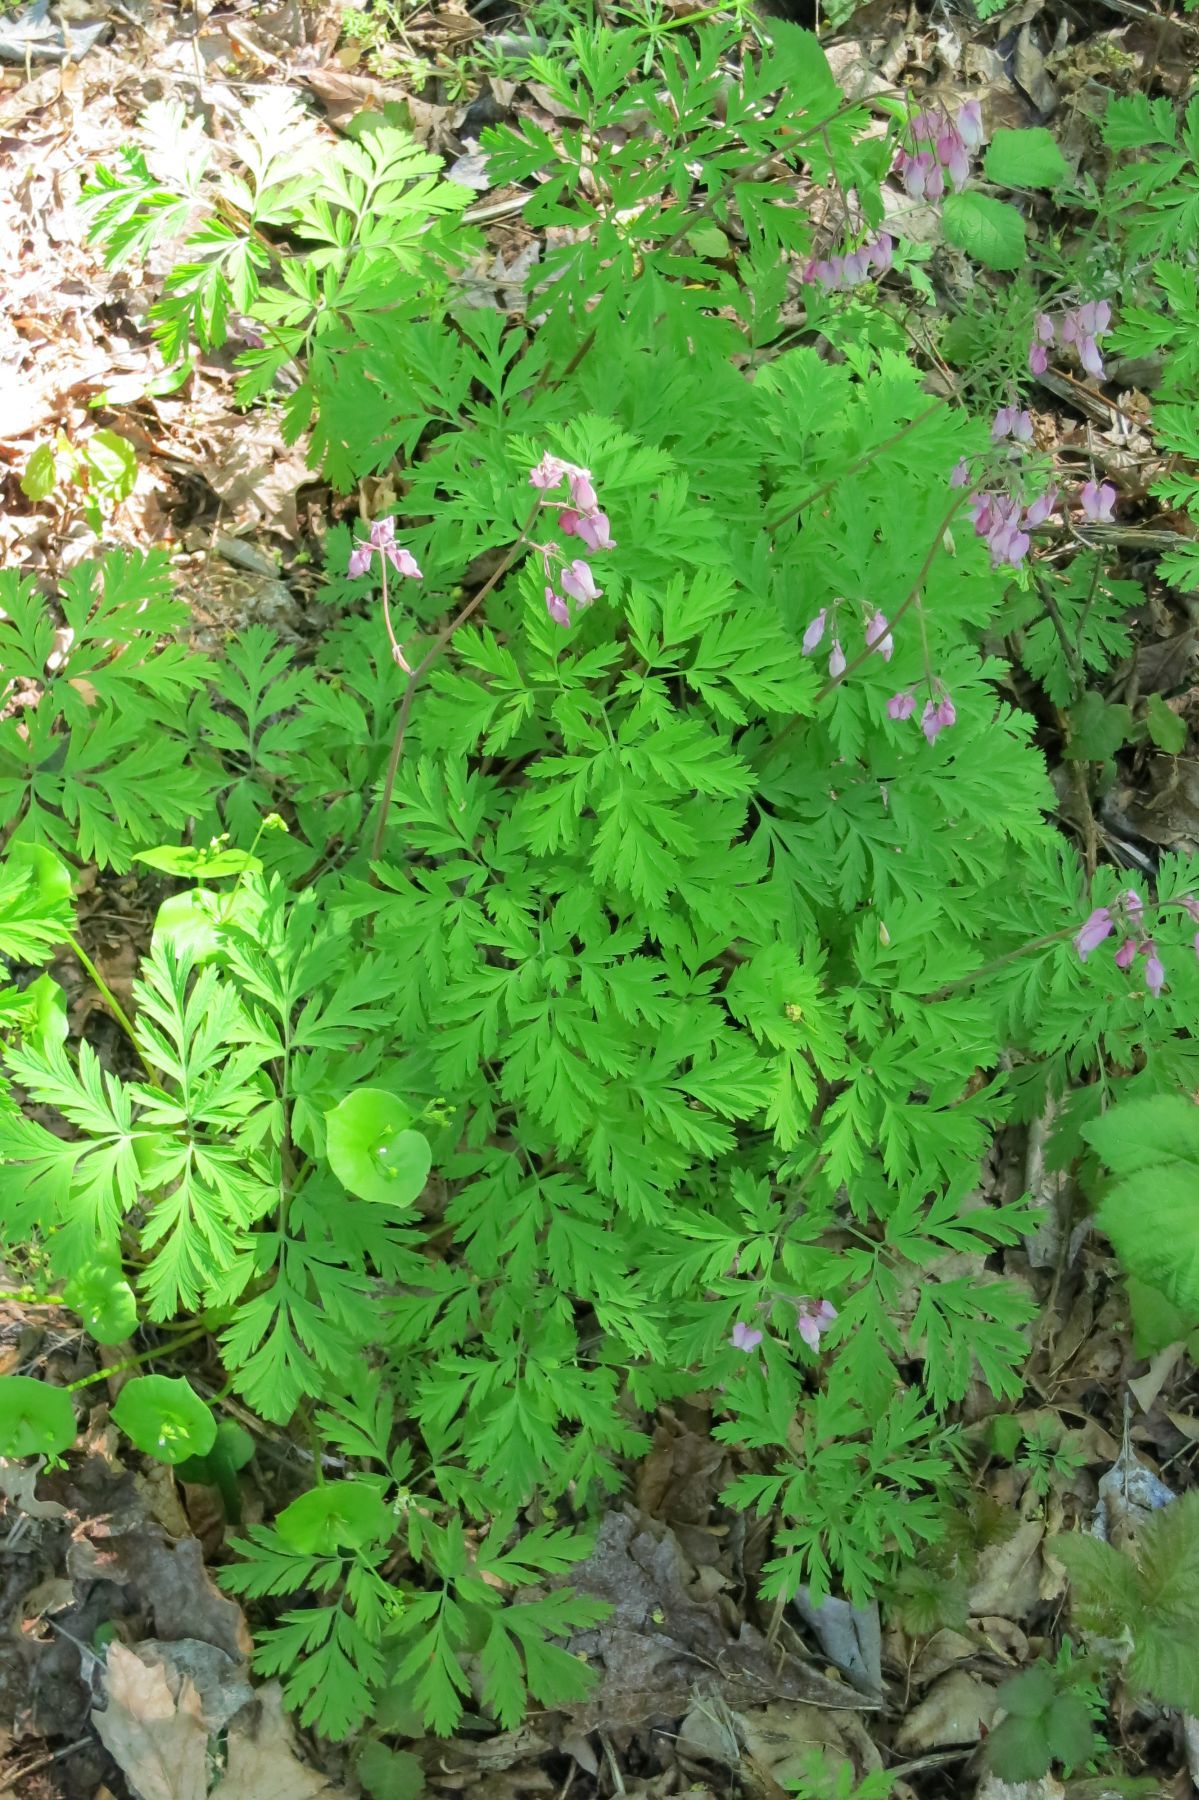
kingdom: Plantae
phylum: Tracheophyta
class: Magnoliopsida
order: Ranunculales
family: Papaveraceae
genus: Dicentra
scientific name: Dicentra formosa
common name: Bleeding-heart
